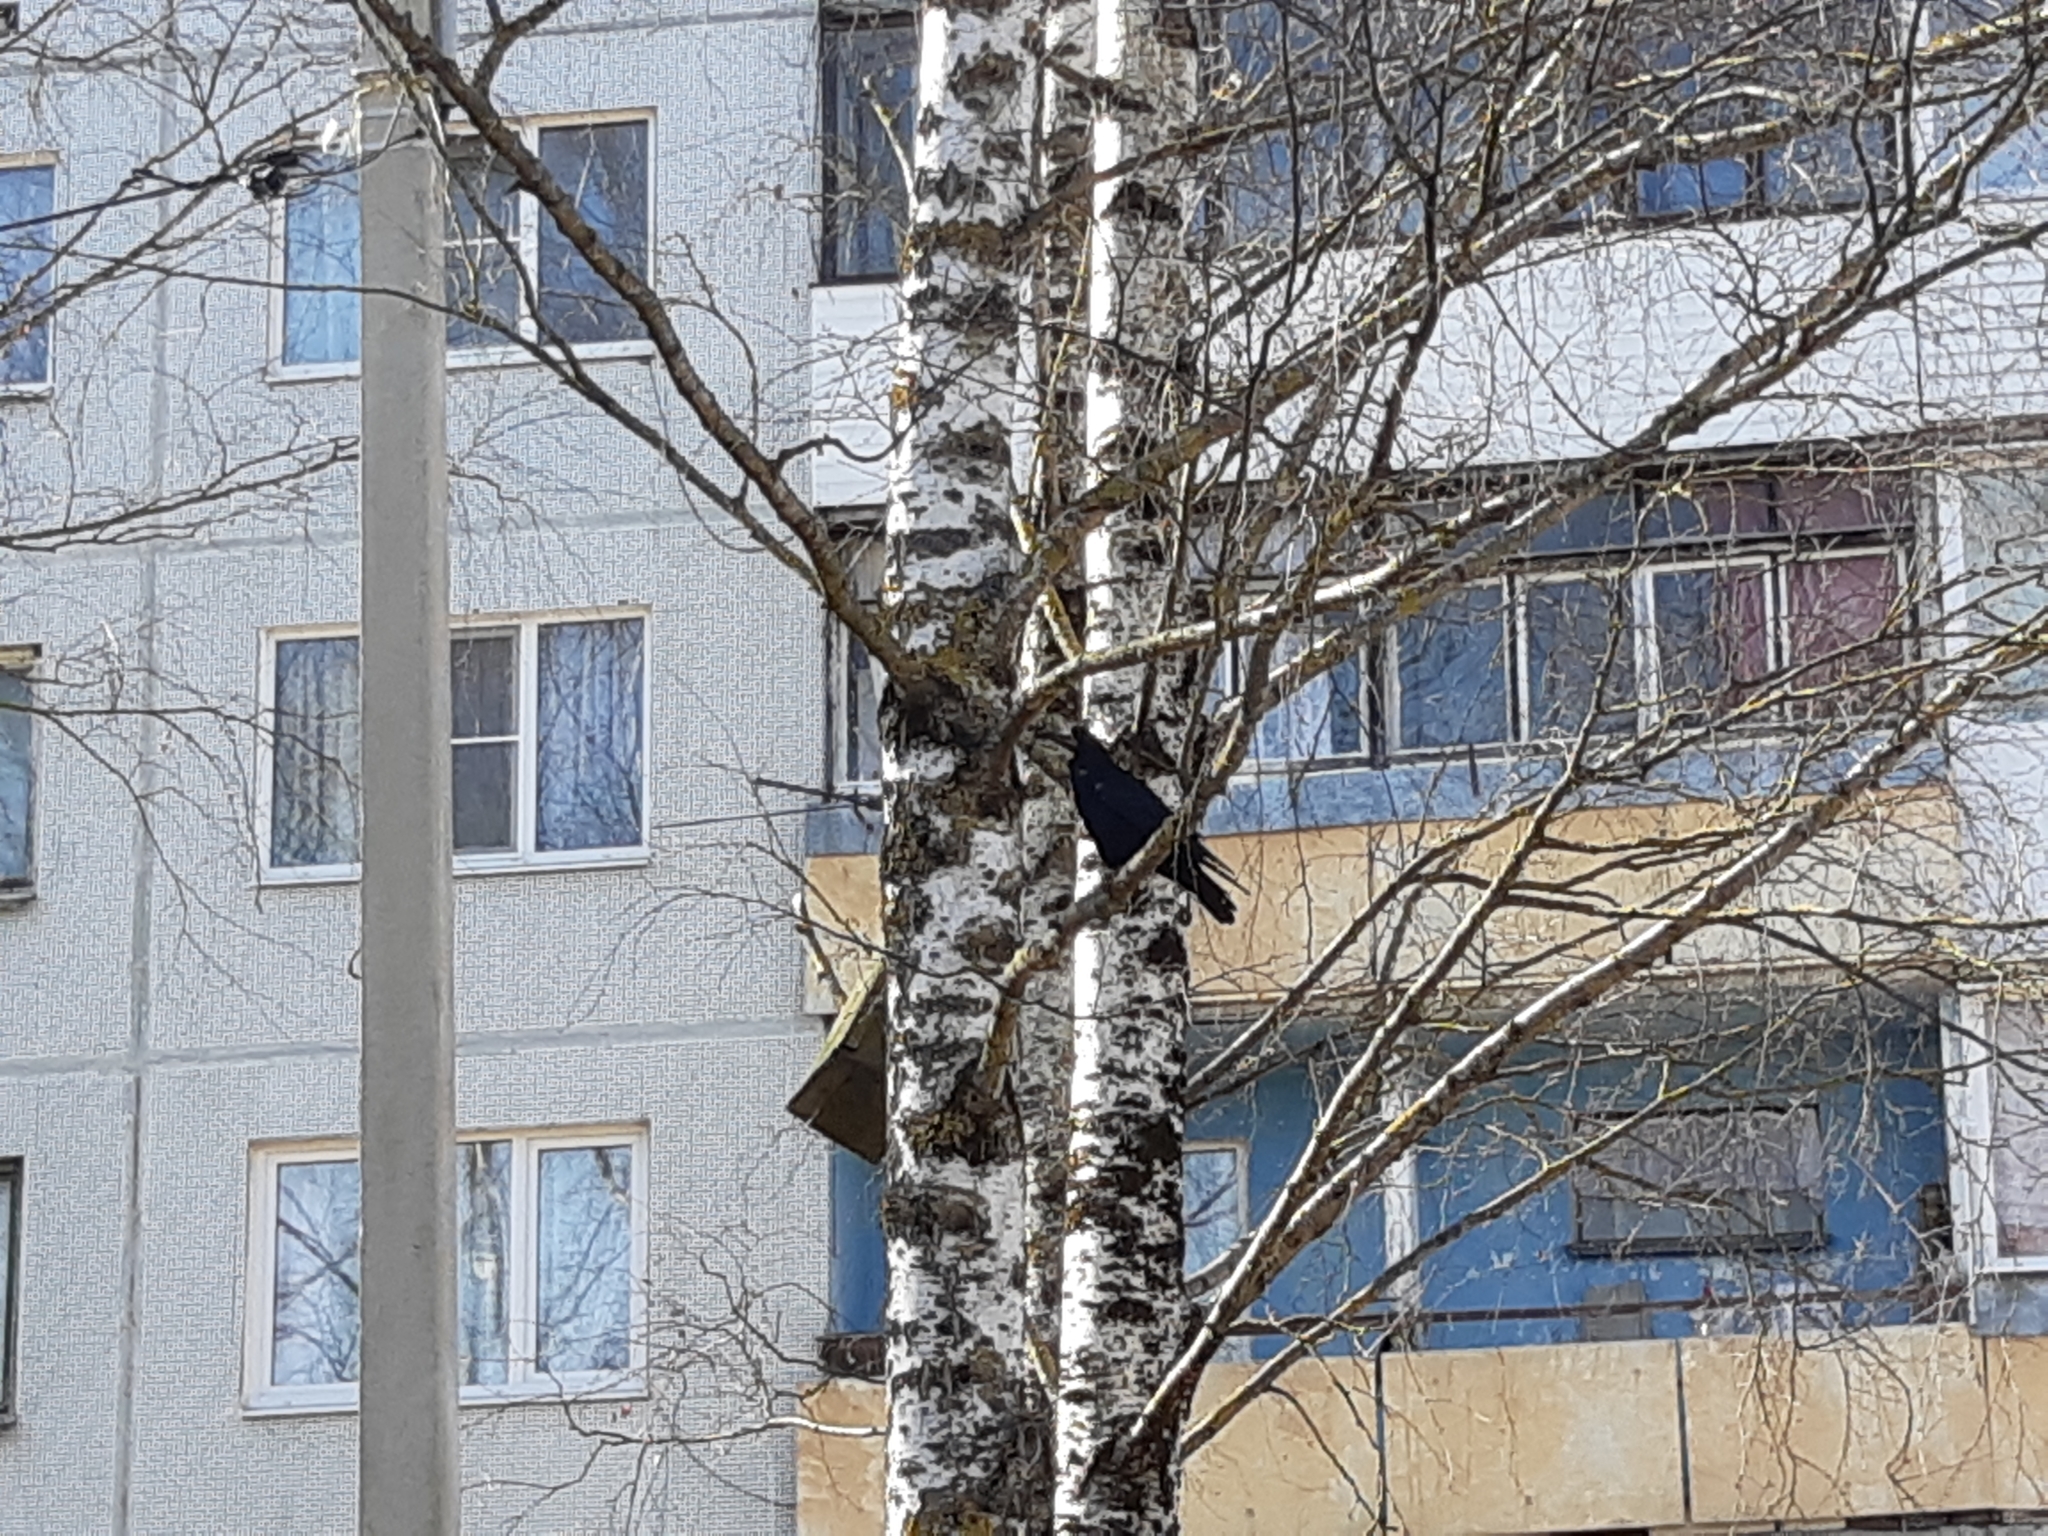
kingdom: Animalia
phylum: Chordata
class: Aves
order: Passeriformes
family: Corvidae
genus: Corvus
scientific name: Corvus frugilegus
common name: Rook
